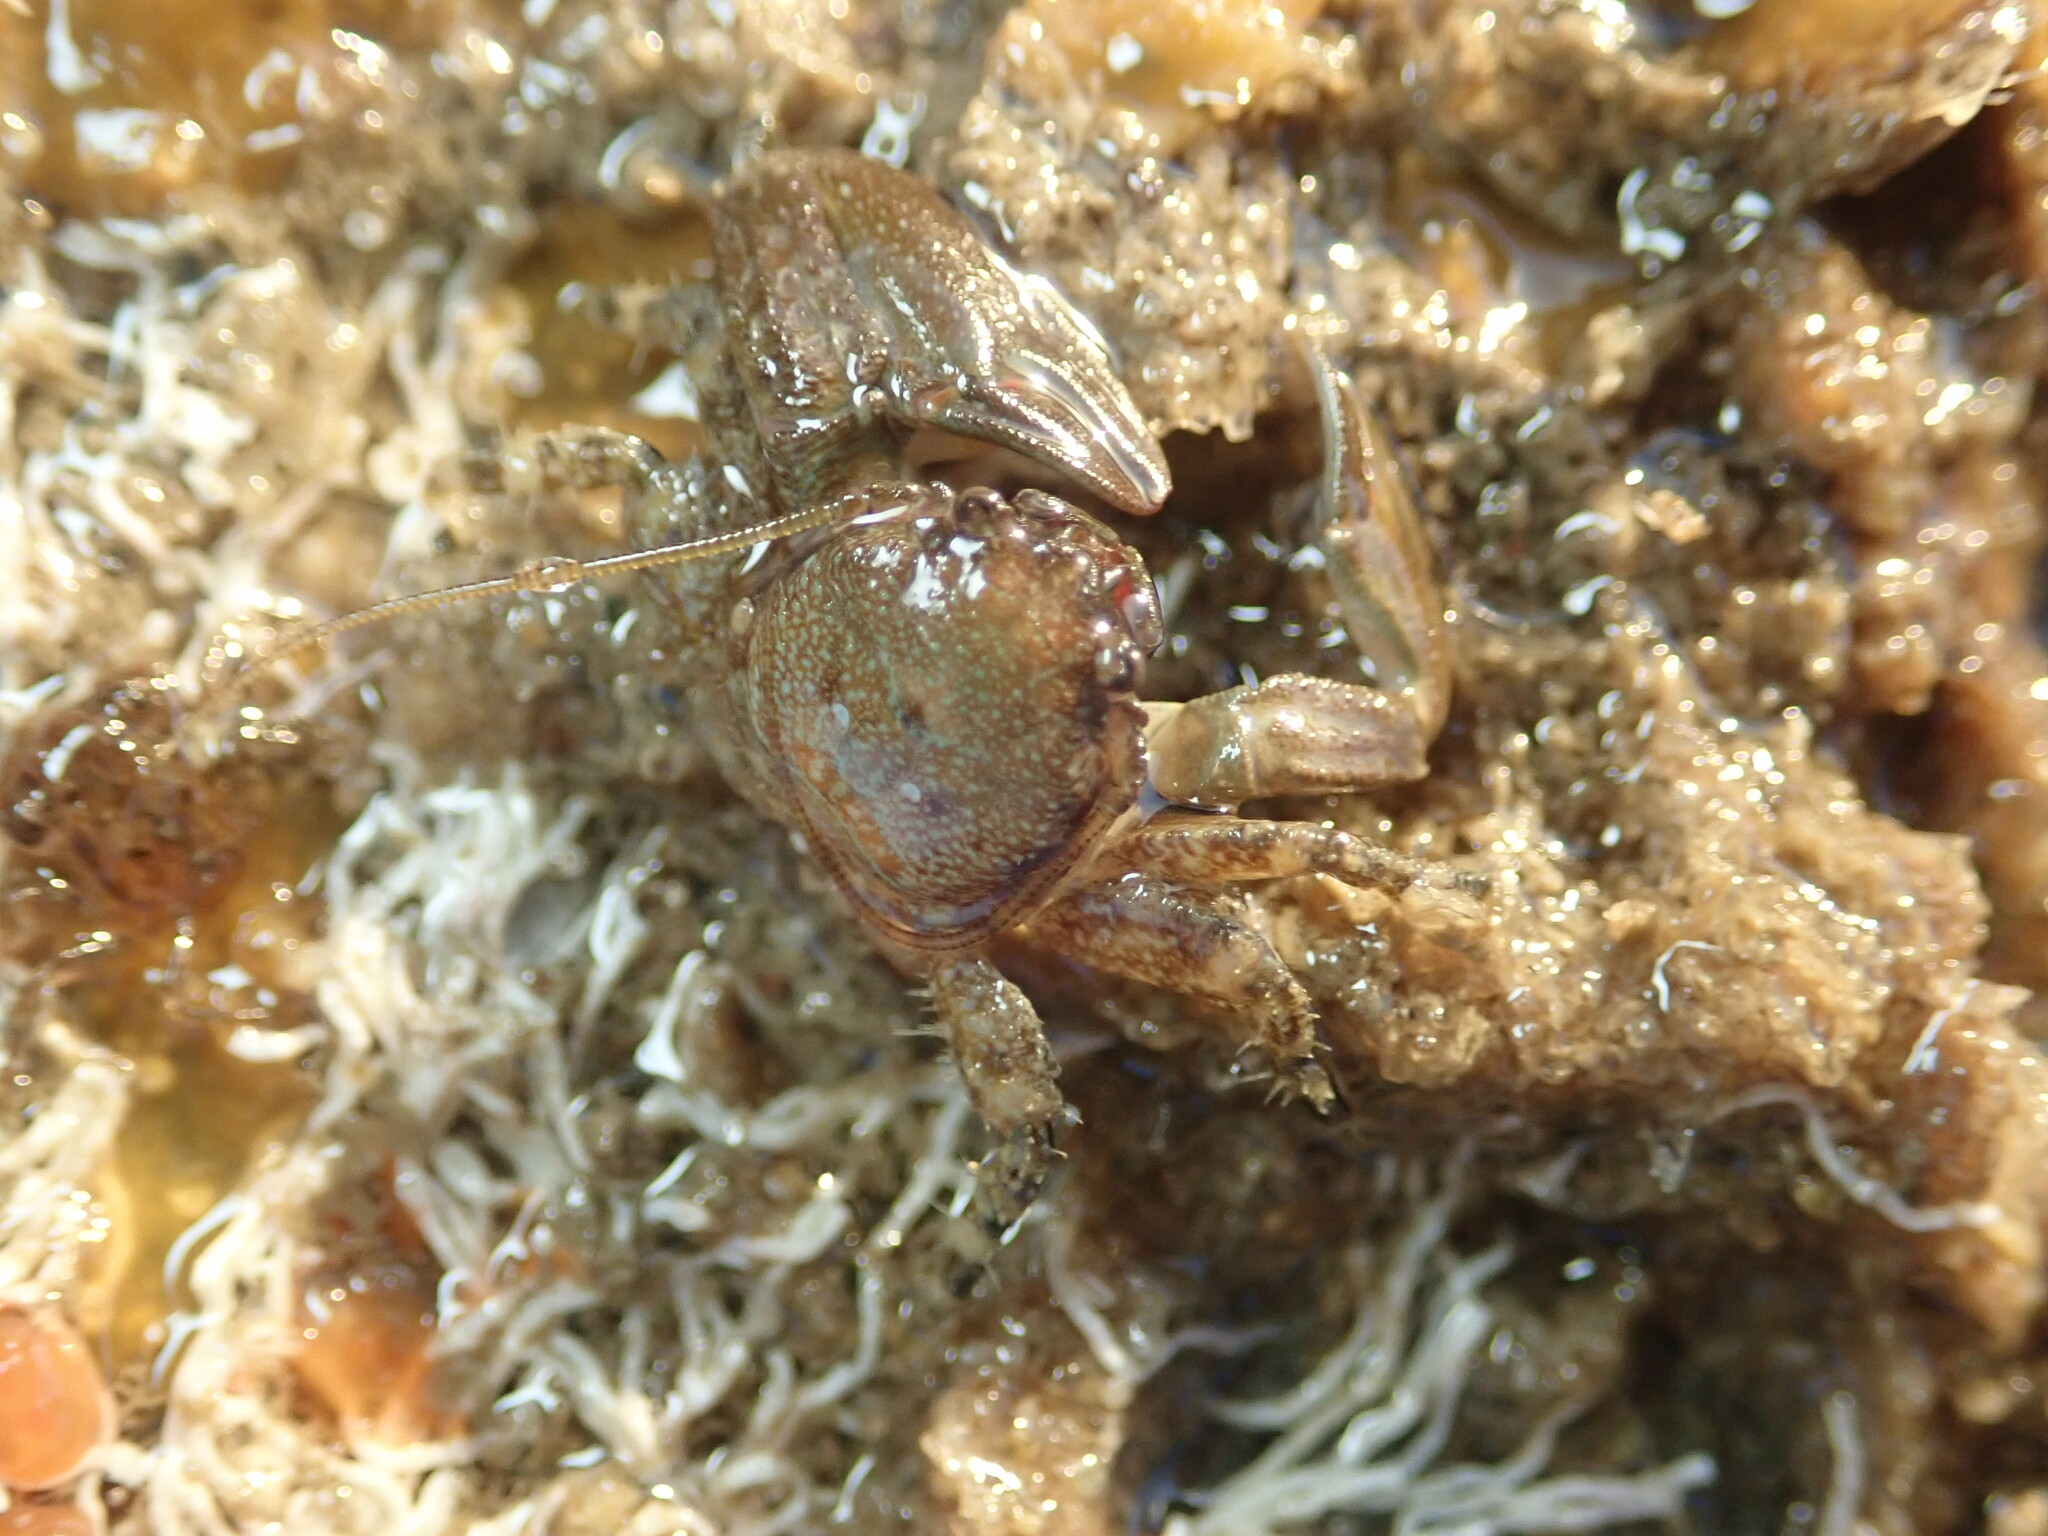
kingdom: Animalia
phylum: Arthropoda
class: Malacostraca
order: Decapoda
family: Porcellanidae
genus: Petrolisthes
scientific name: Petrolisthes cabrilloi
